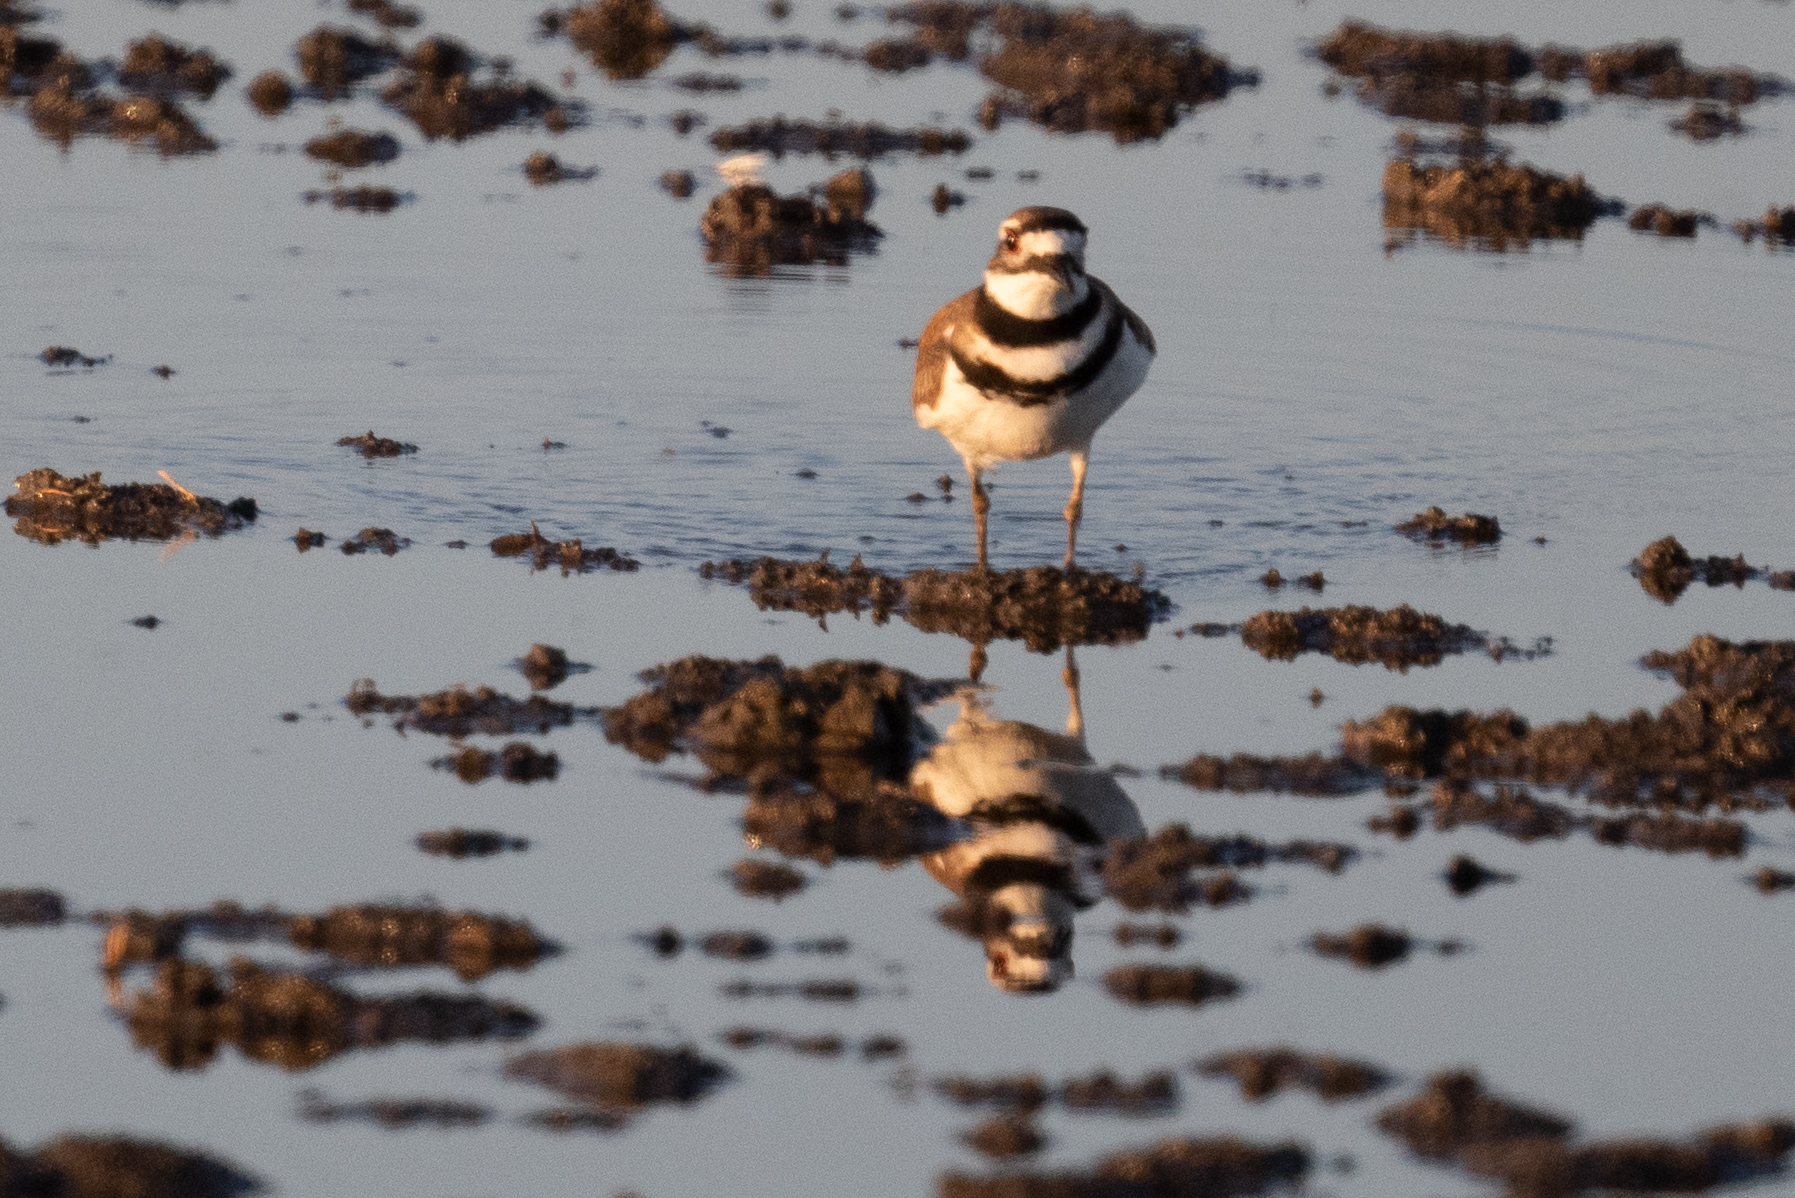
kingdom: Animalia
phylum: Chordata
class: Aves
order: Charadriiformes
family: Charadriidae
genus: Charadrius
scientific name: Charadrius vociferus
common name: Killdeer
